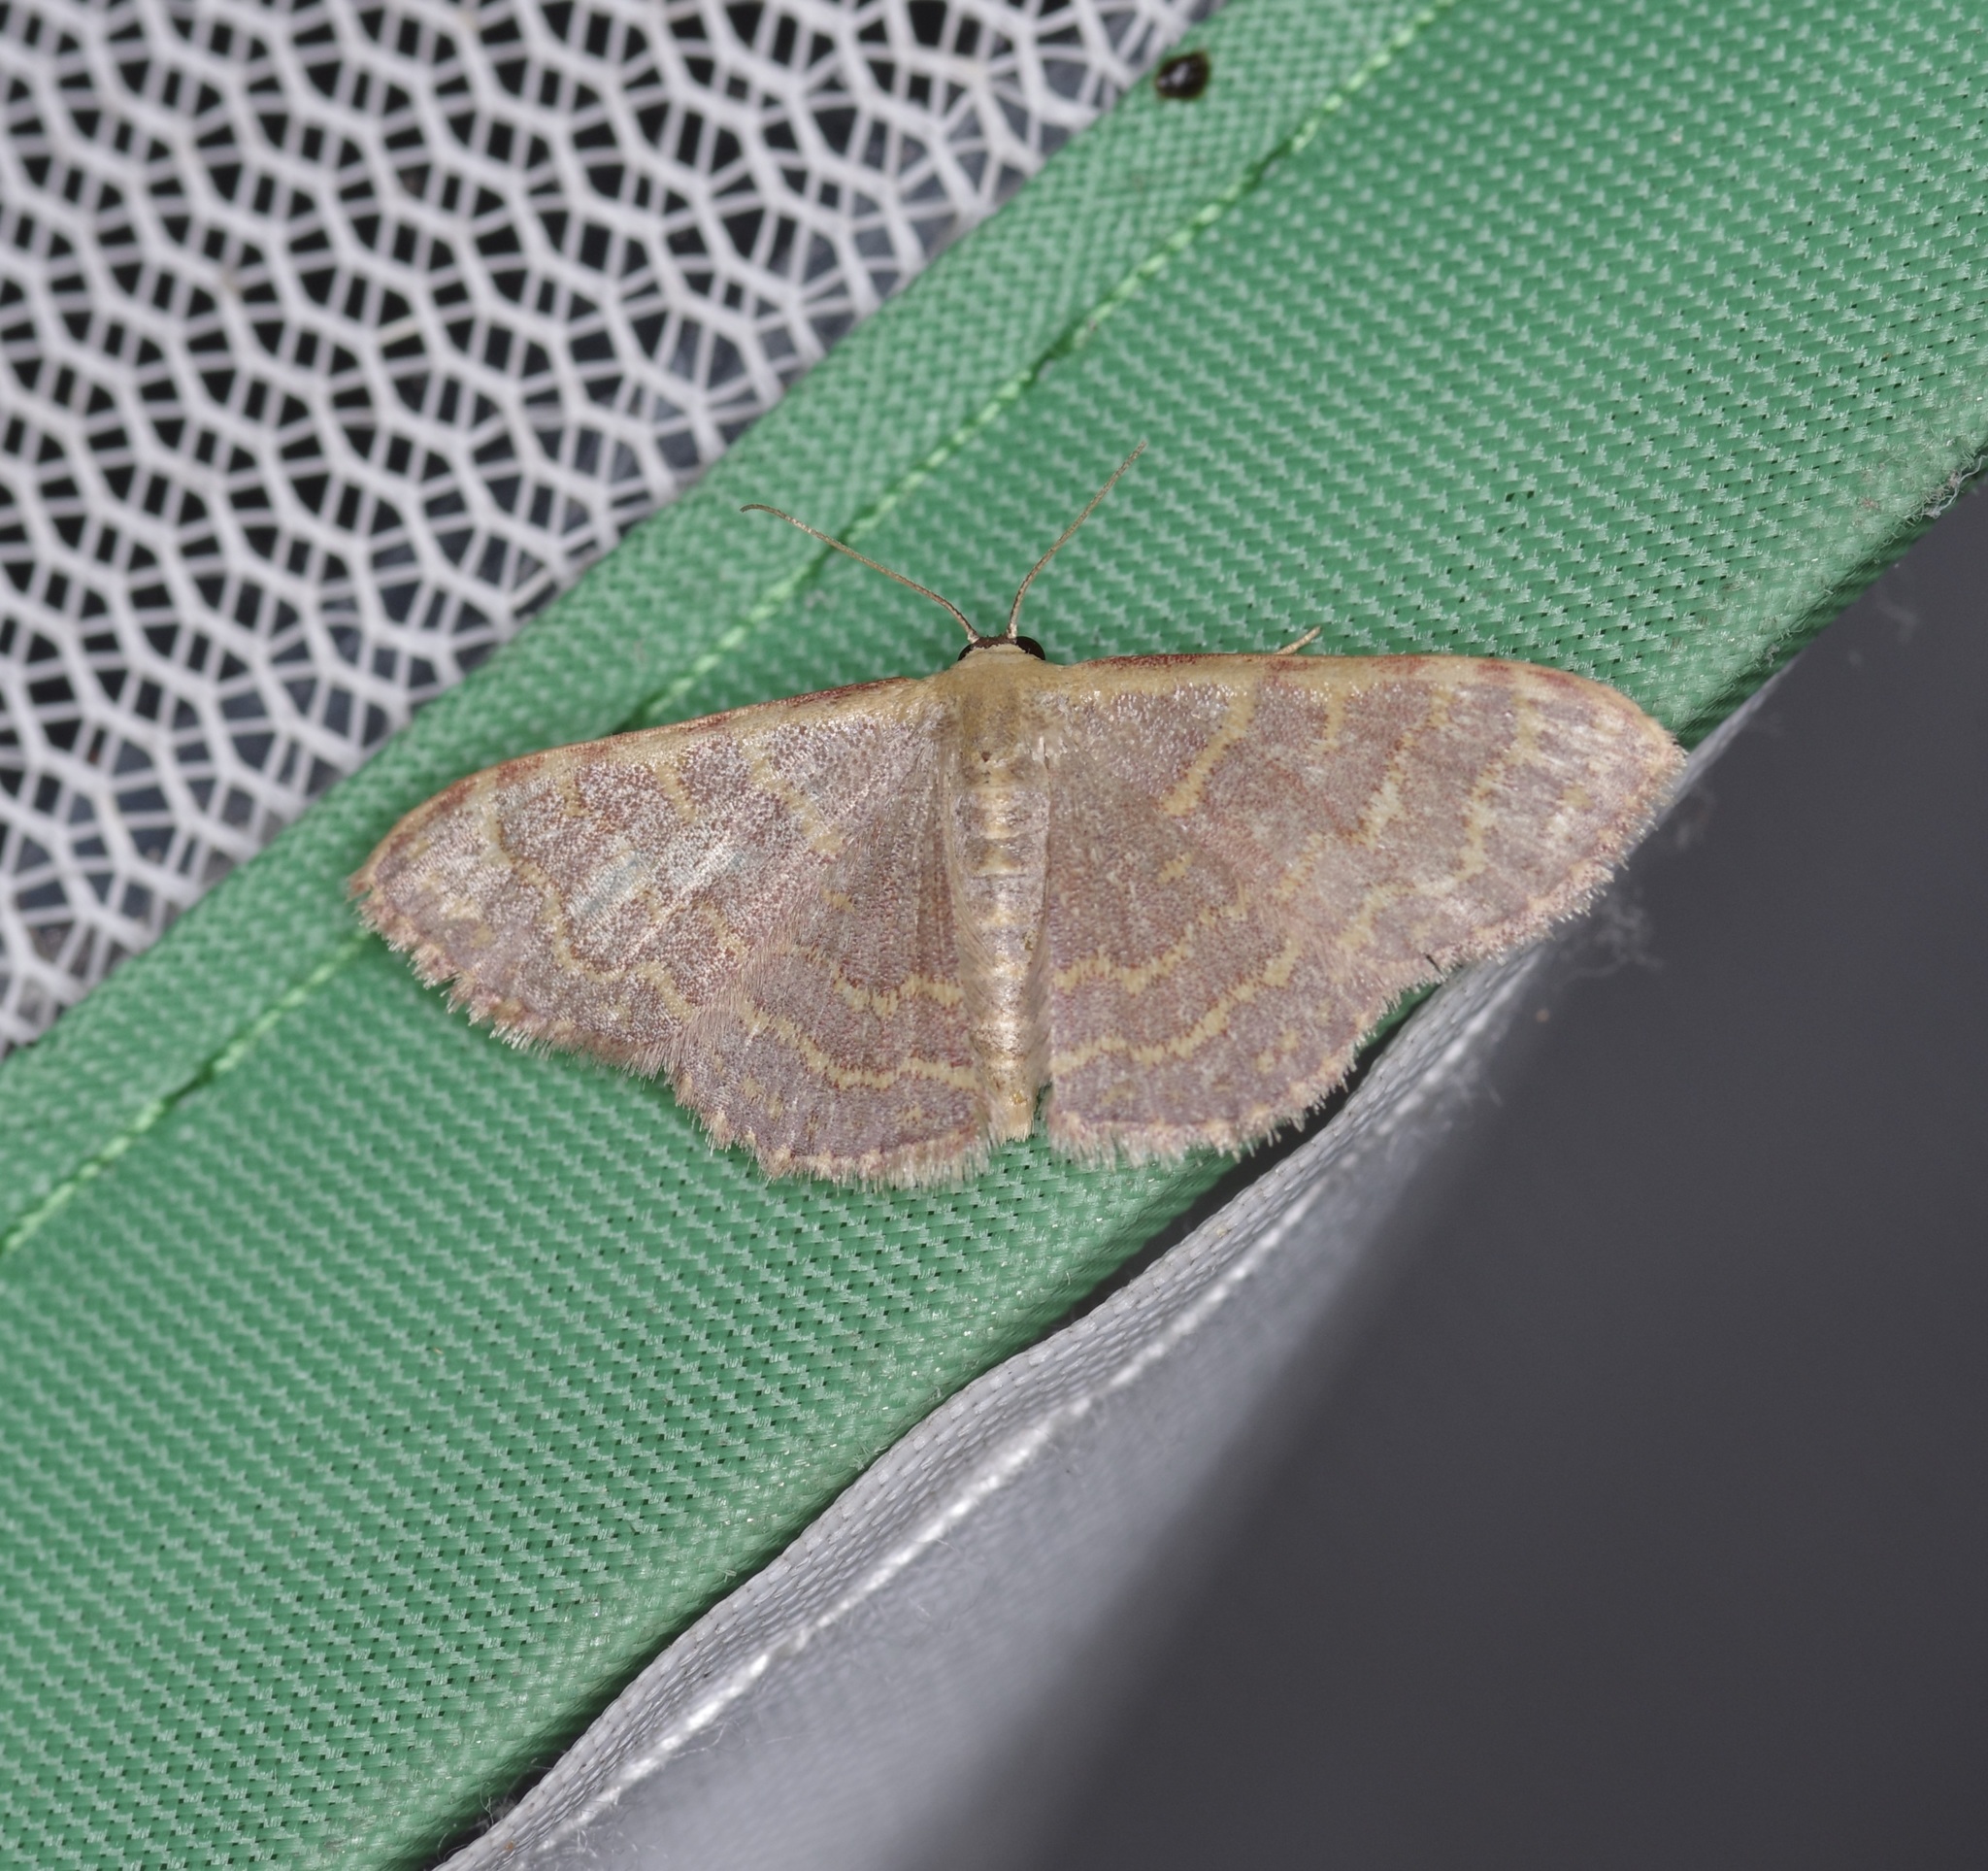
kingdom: Animalia
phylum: Arthropoda
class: Insecta
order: Lepidoptera
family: Geometridae
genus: Leptostales
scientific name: Leptostales pannaria
